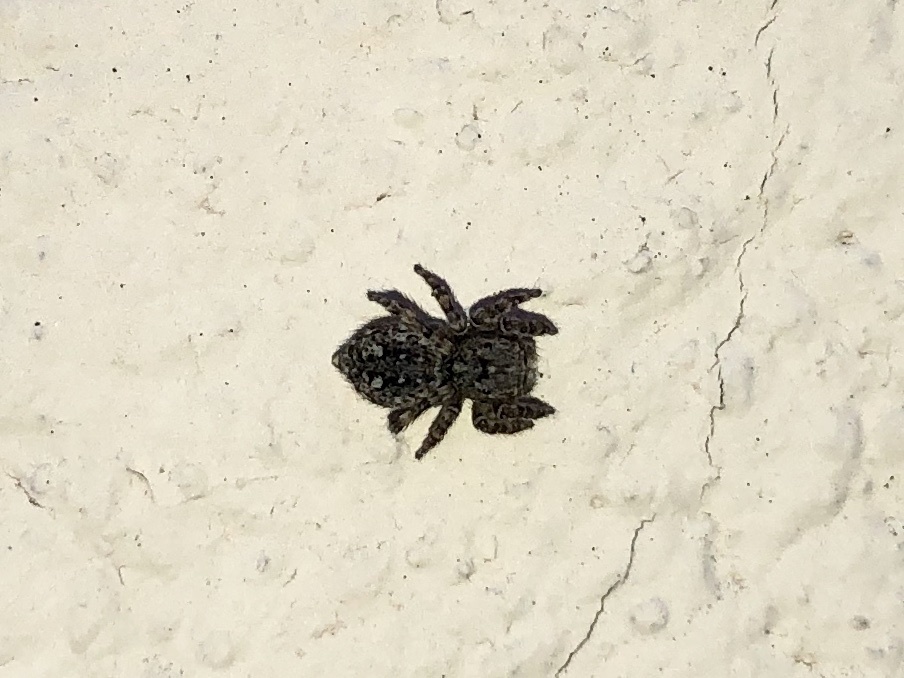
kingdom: Animalia
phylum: Arthropoda
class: Arachnida
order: Araneae
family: Salticidae
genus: Attulus
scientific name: Attulus pubescens
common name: Jumping spider
